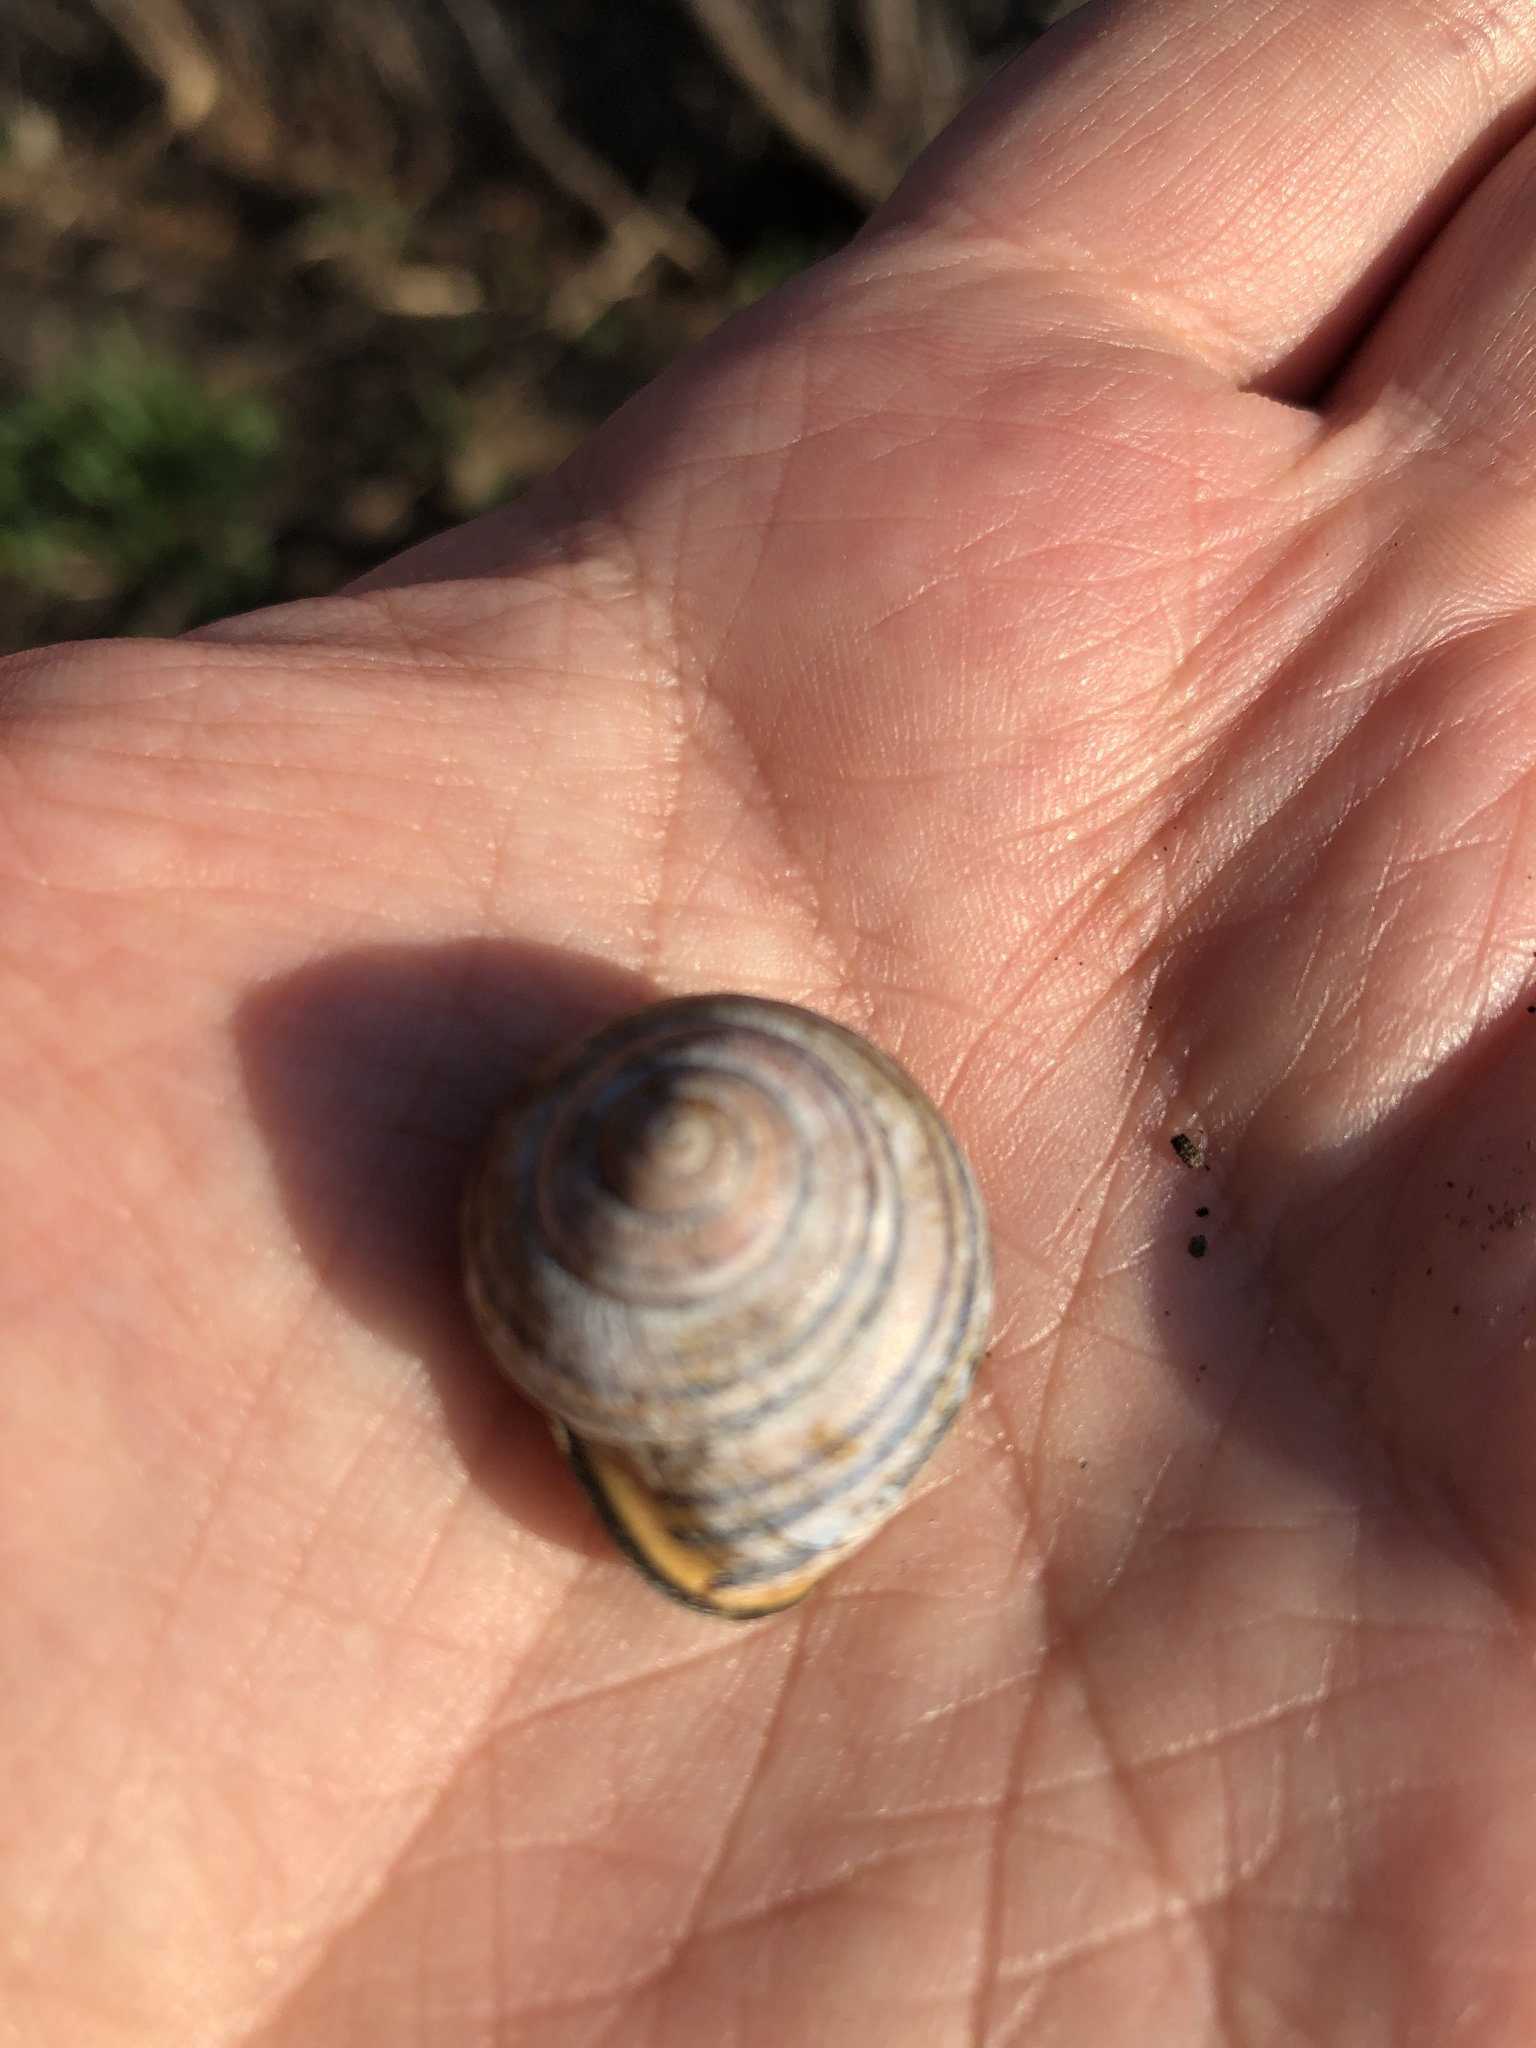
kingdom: Animalia
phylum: Mollusca
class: Gastropoda
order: Stylommatophora
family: Helicidae
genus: Cepaea
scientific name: Cepaea nemoralis
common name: Grovesnail
